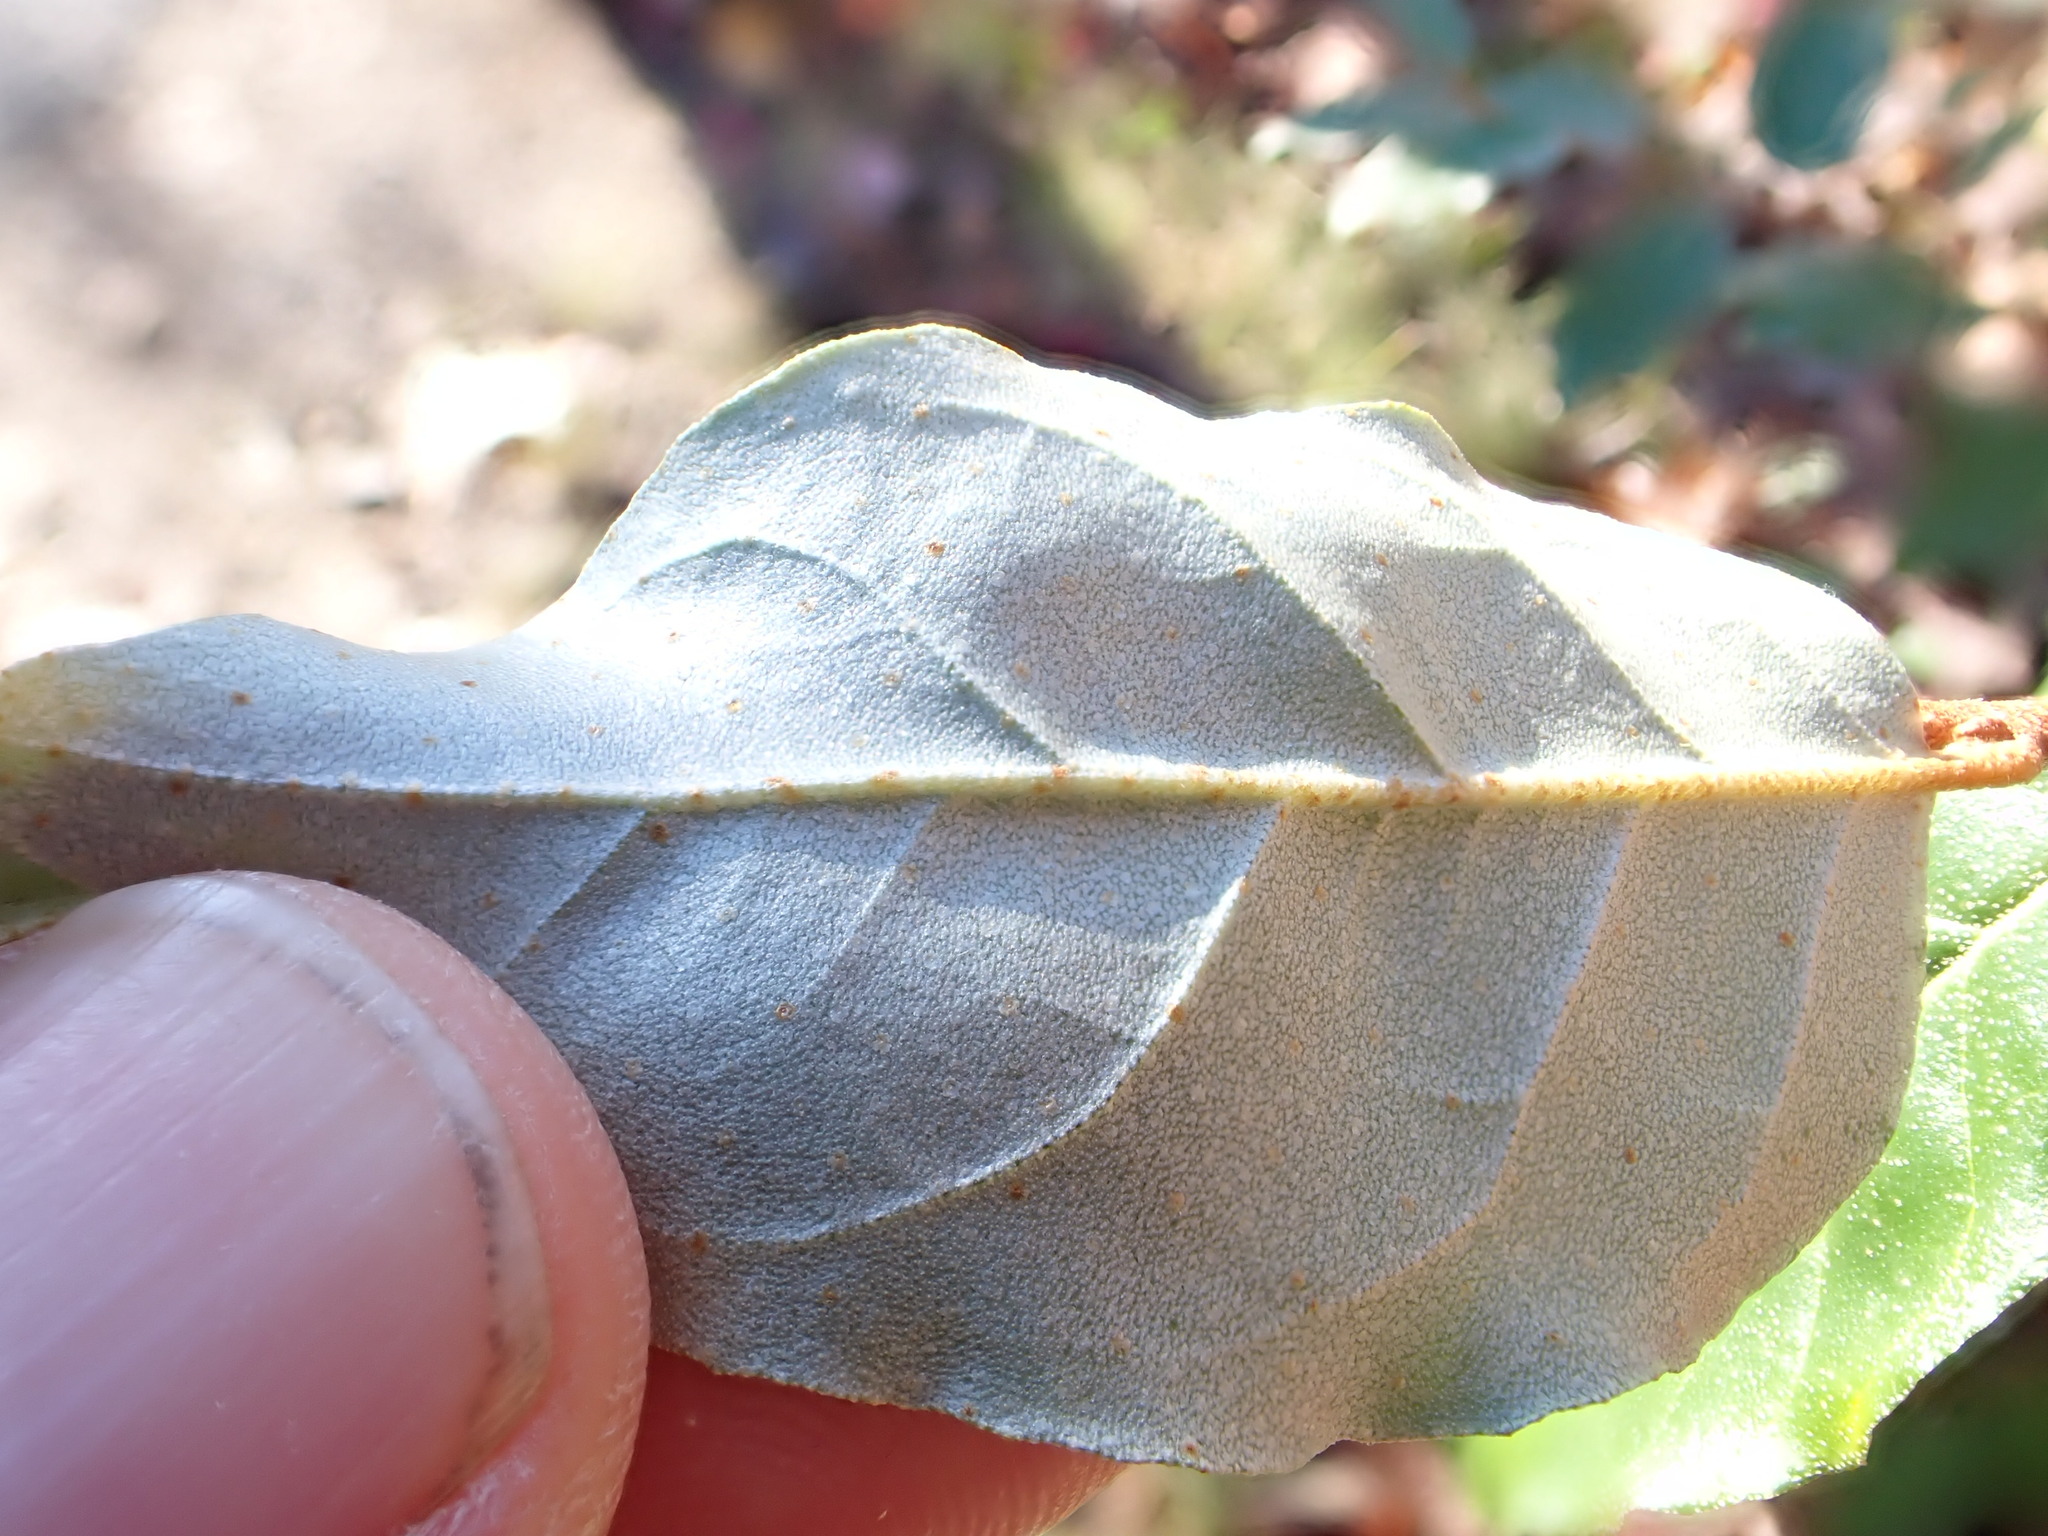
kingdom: Plantae
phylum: Tracheophyta
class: Magnoliopsida
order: Rosales
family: Elaeagnaceae
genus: Elaeagnus
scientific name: Elaeagnus umbellata
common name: Autumn olive
